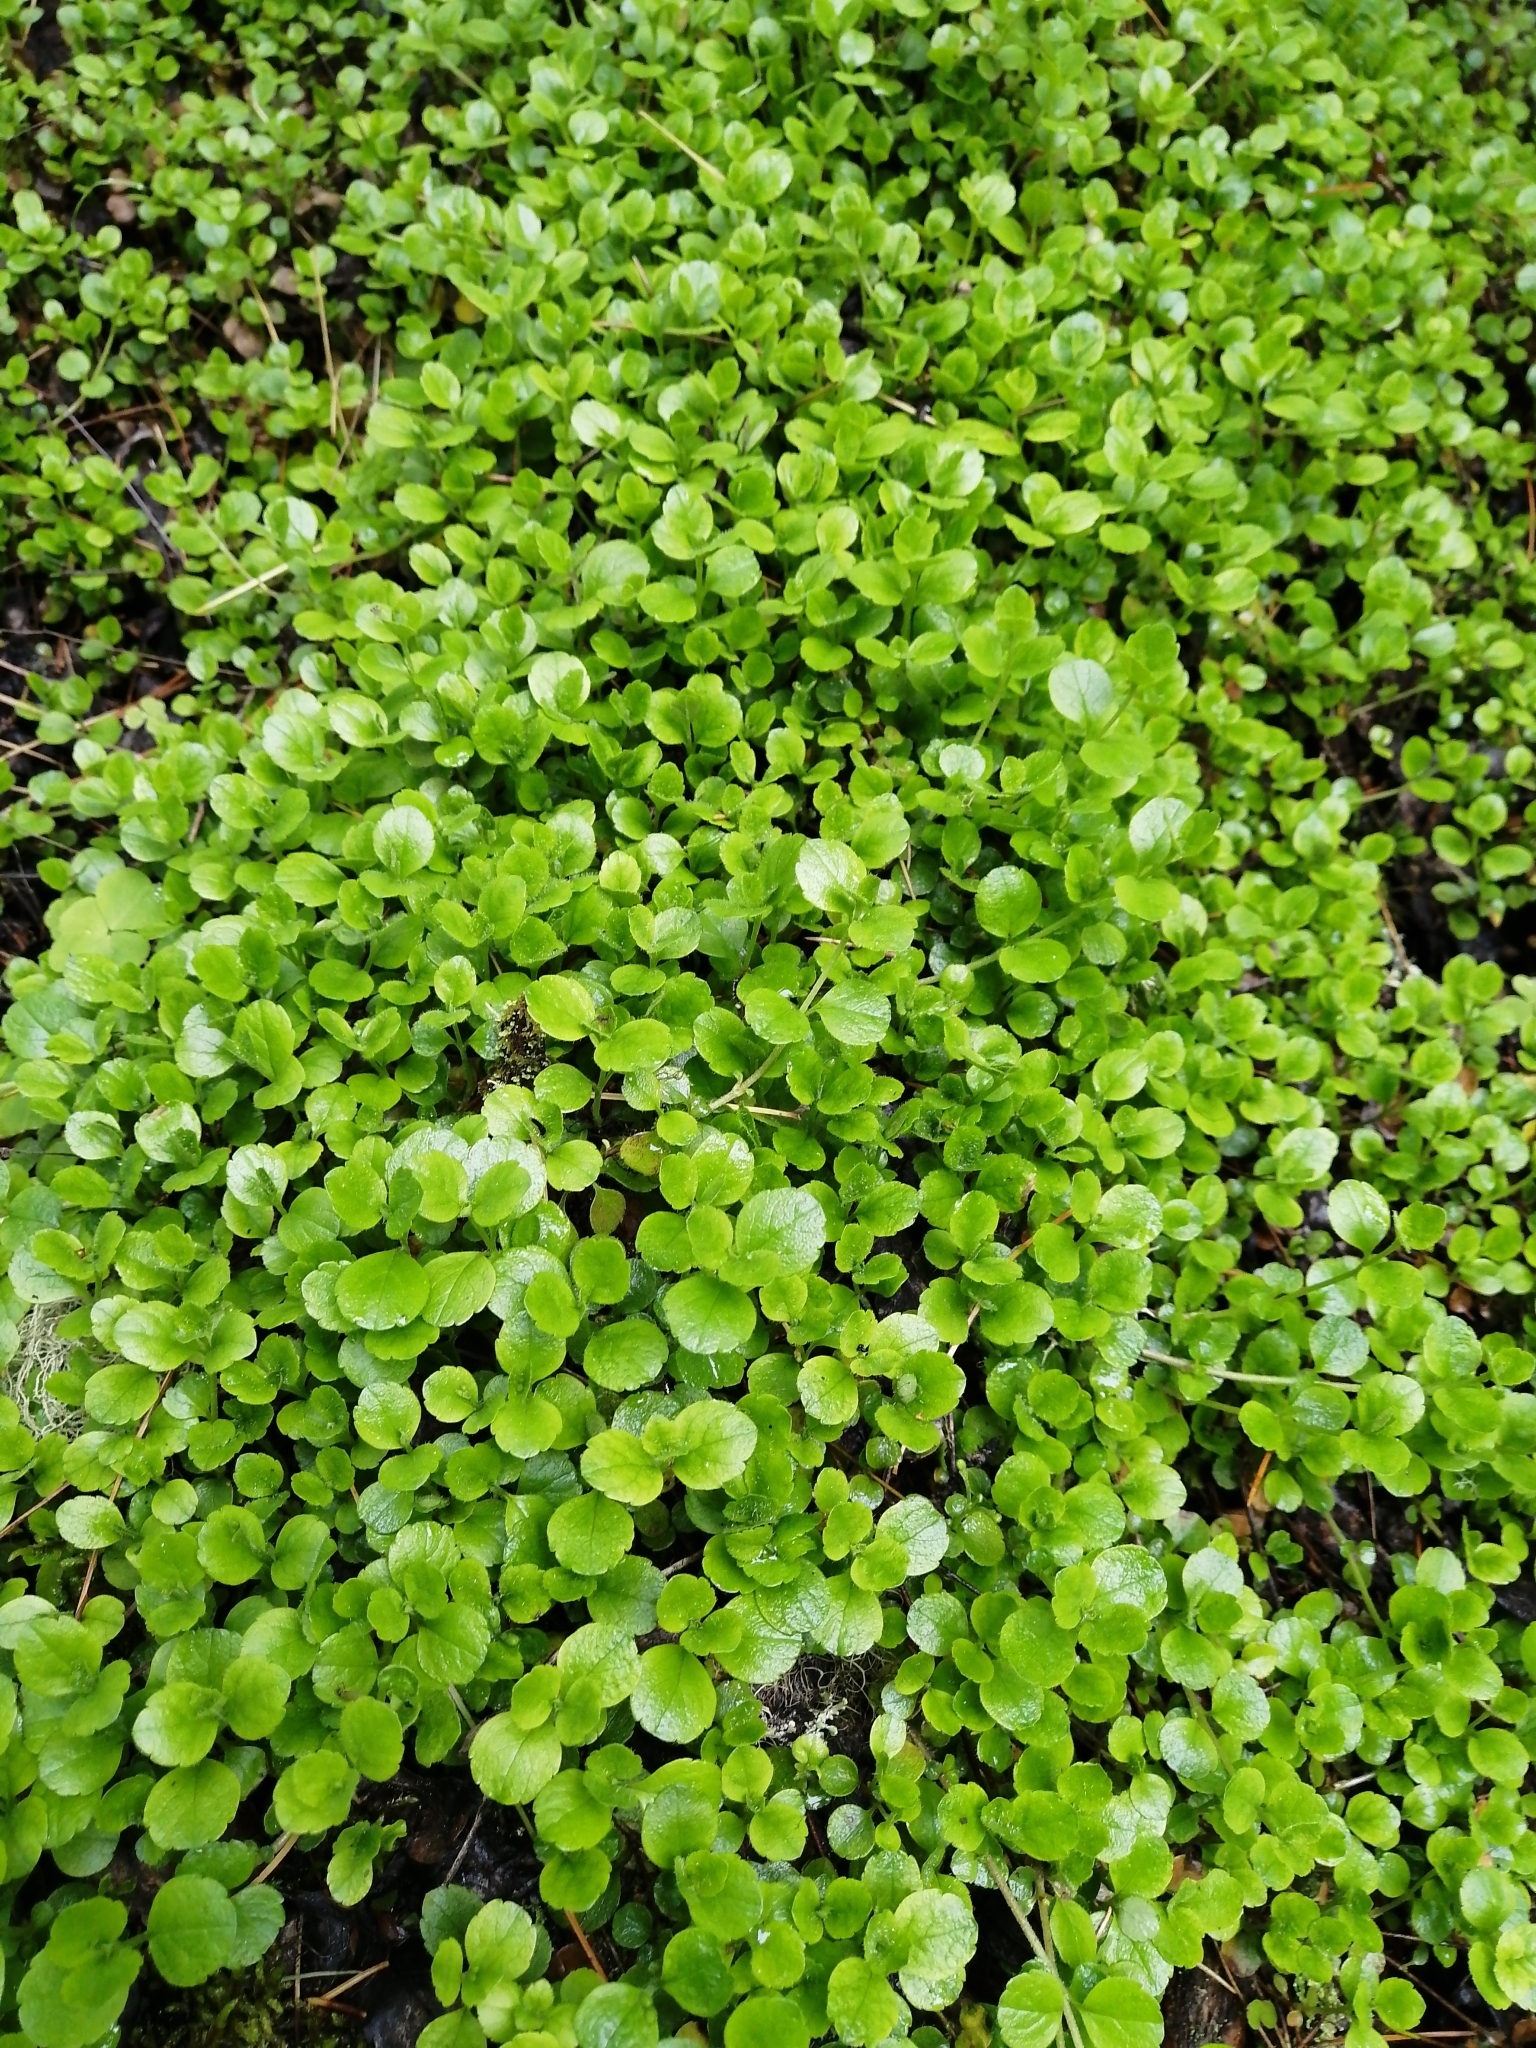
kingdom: Plantae
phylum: Tracheophyta
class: Magnoliopsida
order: Dipsacales
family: Caprifoliaceae
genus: Linnaea
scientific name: Linnaea borealis
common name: Twinflower
